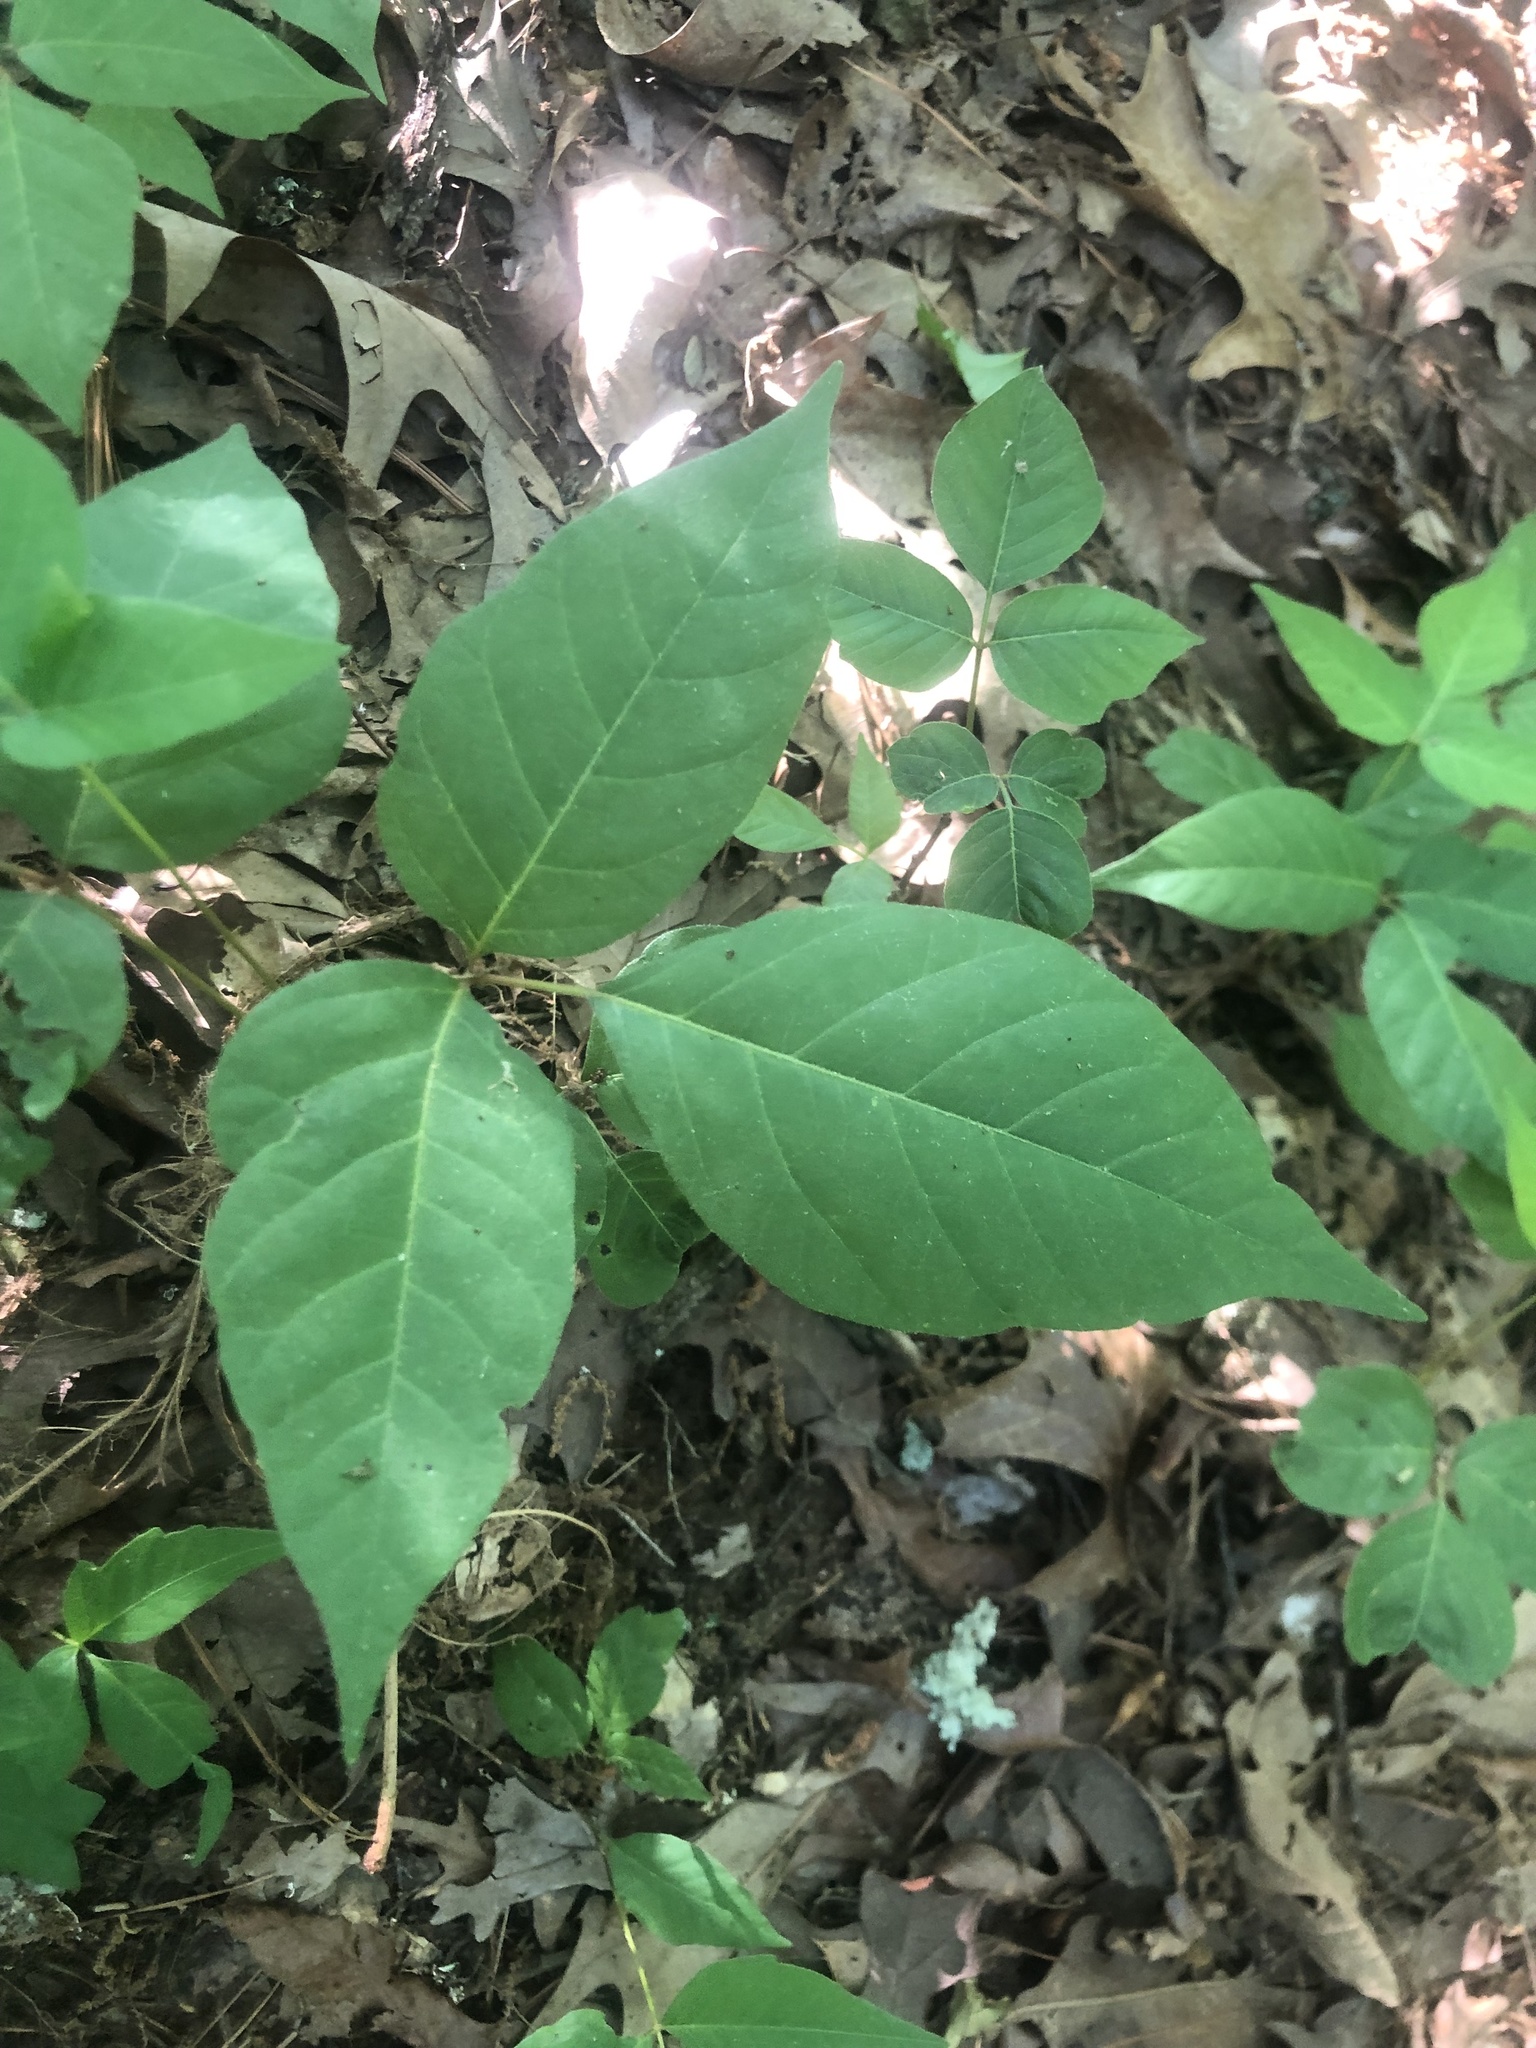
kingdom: Plantae
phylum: Tracheophyta
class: Magnoliopsida
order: Sapindales
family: Anacardiaceae
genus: Toxicodendron
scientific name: Toxicodendron radicans
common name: Poison ivy
